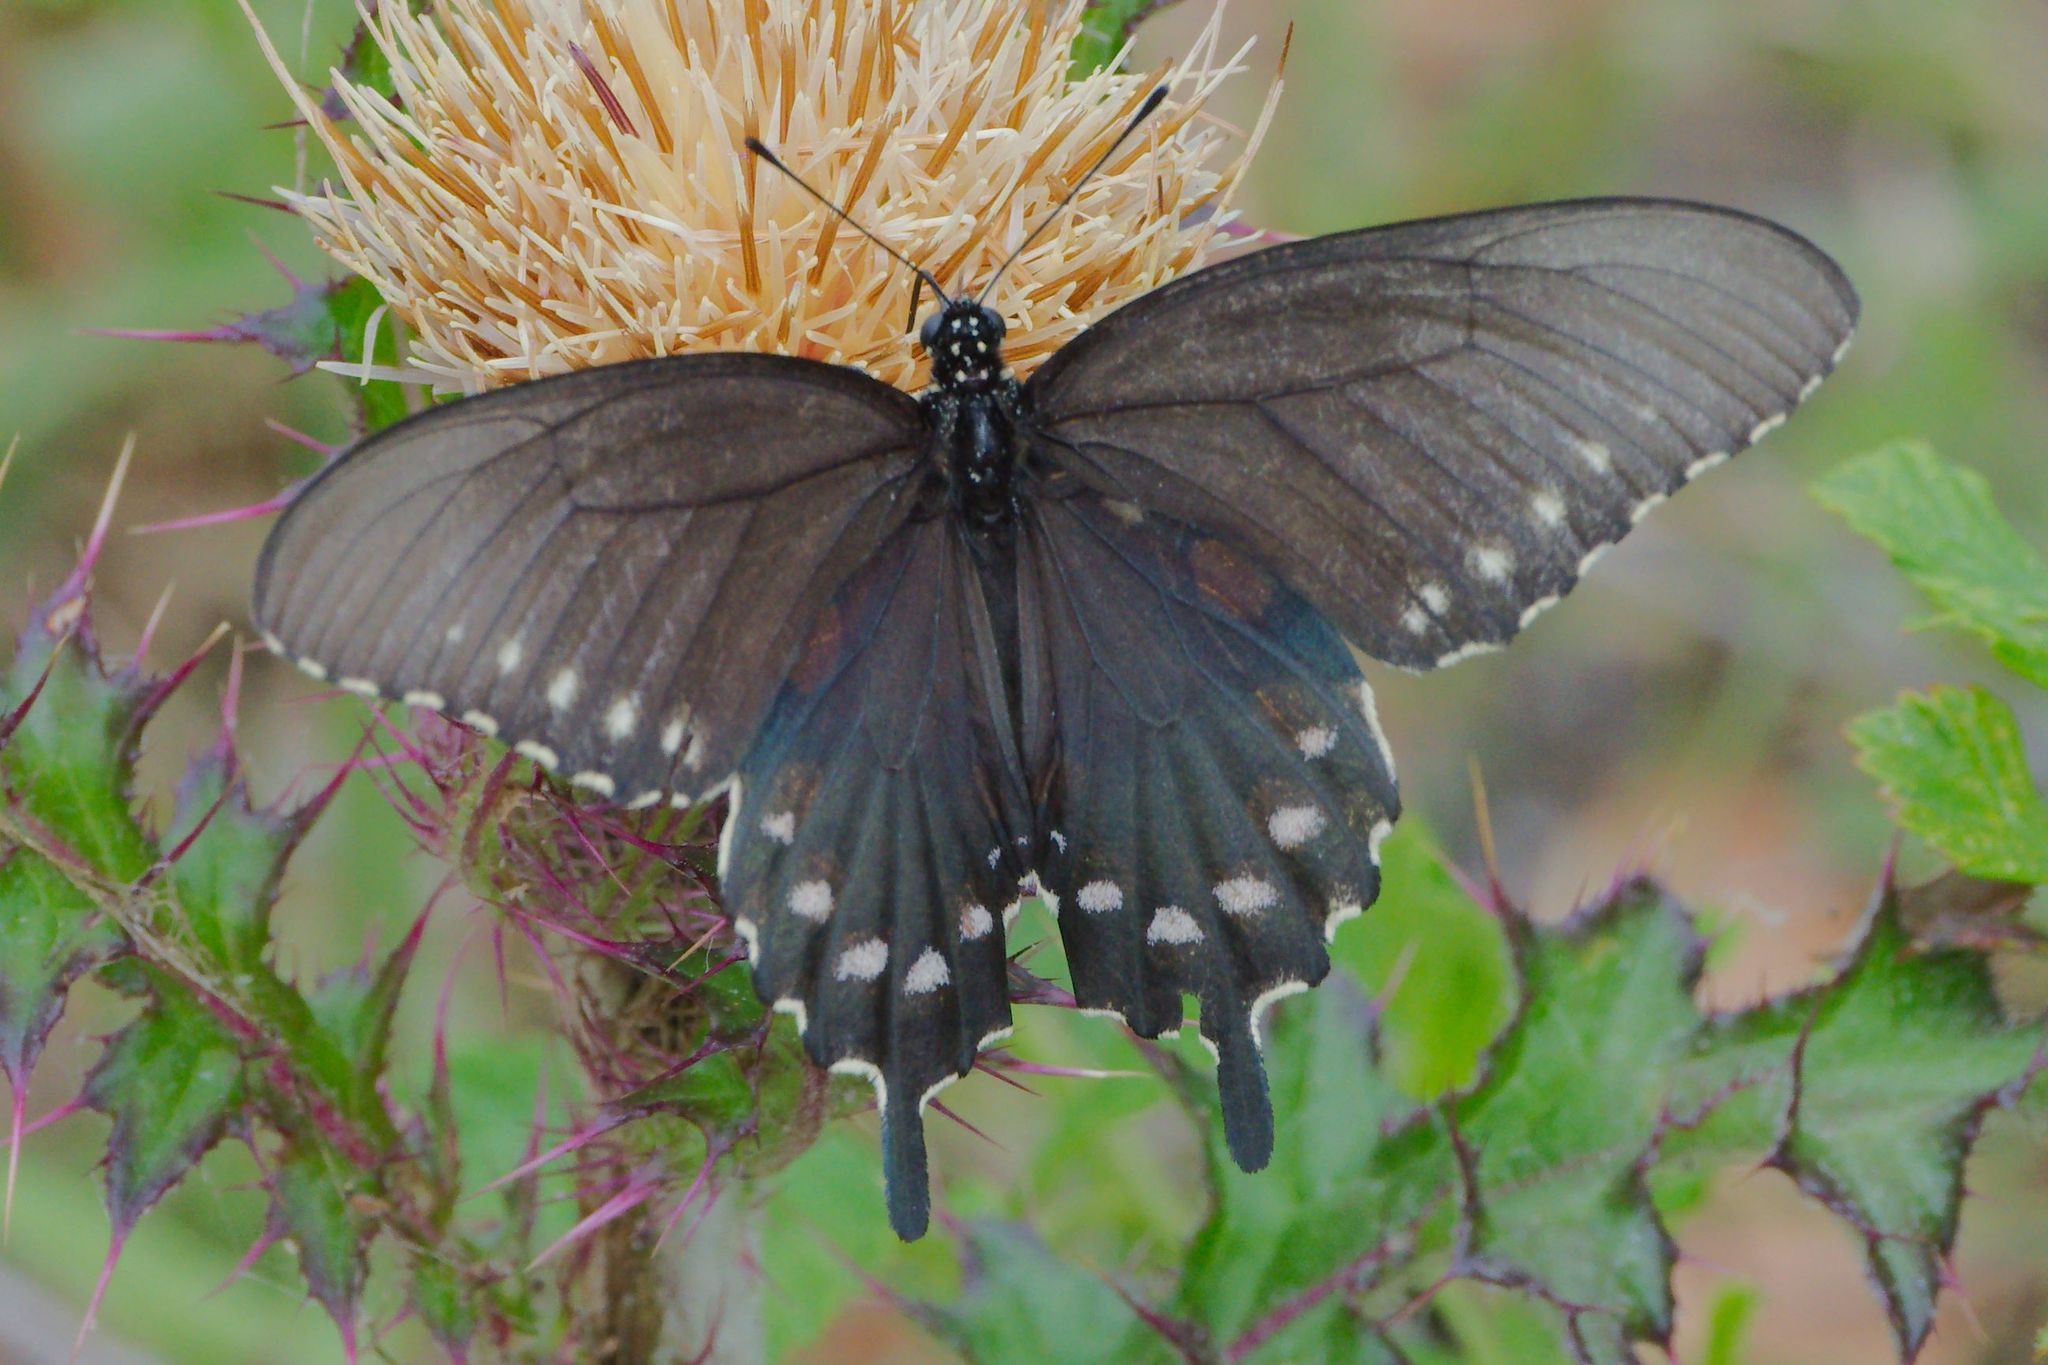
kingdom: Animalia
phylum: Arthropoda
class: Insecta
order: Lepidoptera
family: Papilionidae
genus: Battus
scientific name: Battus philenor
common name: Pipevine swallowtail
